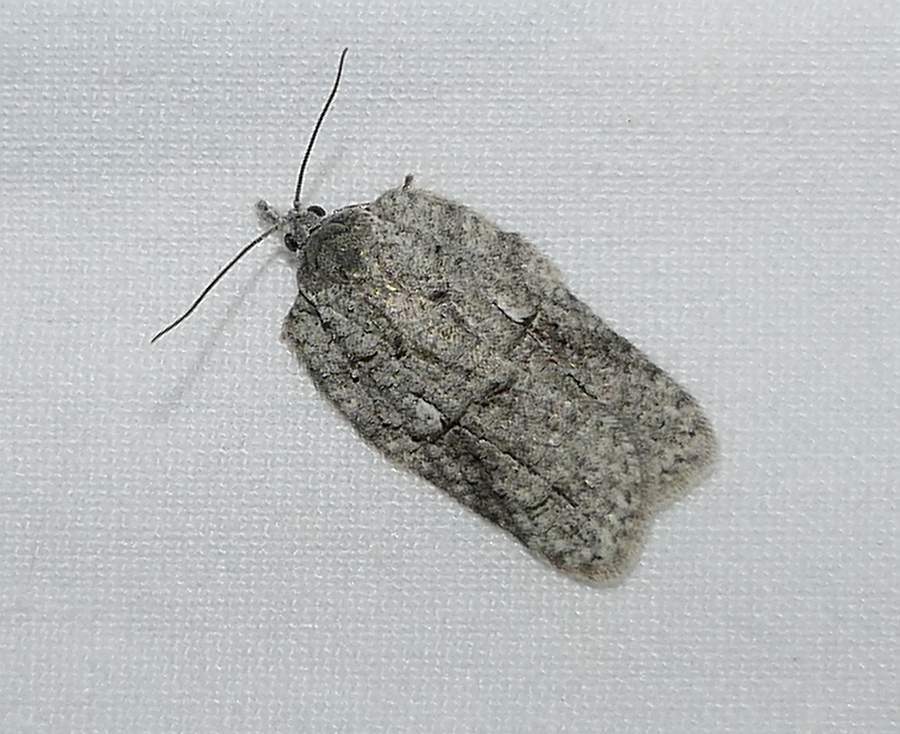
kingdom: Animalia
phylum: Arthropoda
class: Insecta
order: Lepidoptera
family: Tortricidae
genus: Acleris
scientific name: Acleris nigrolinea
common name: Black-lined acleris
